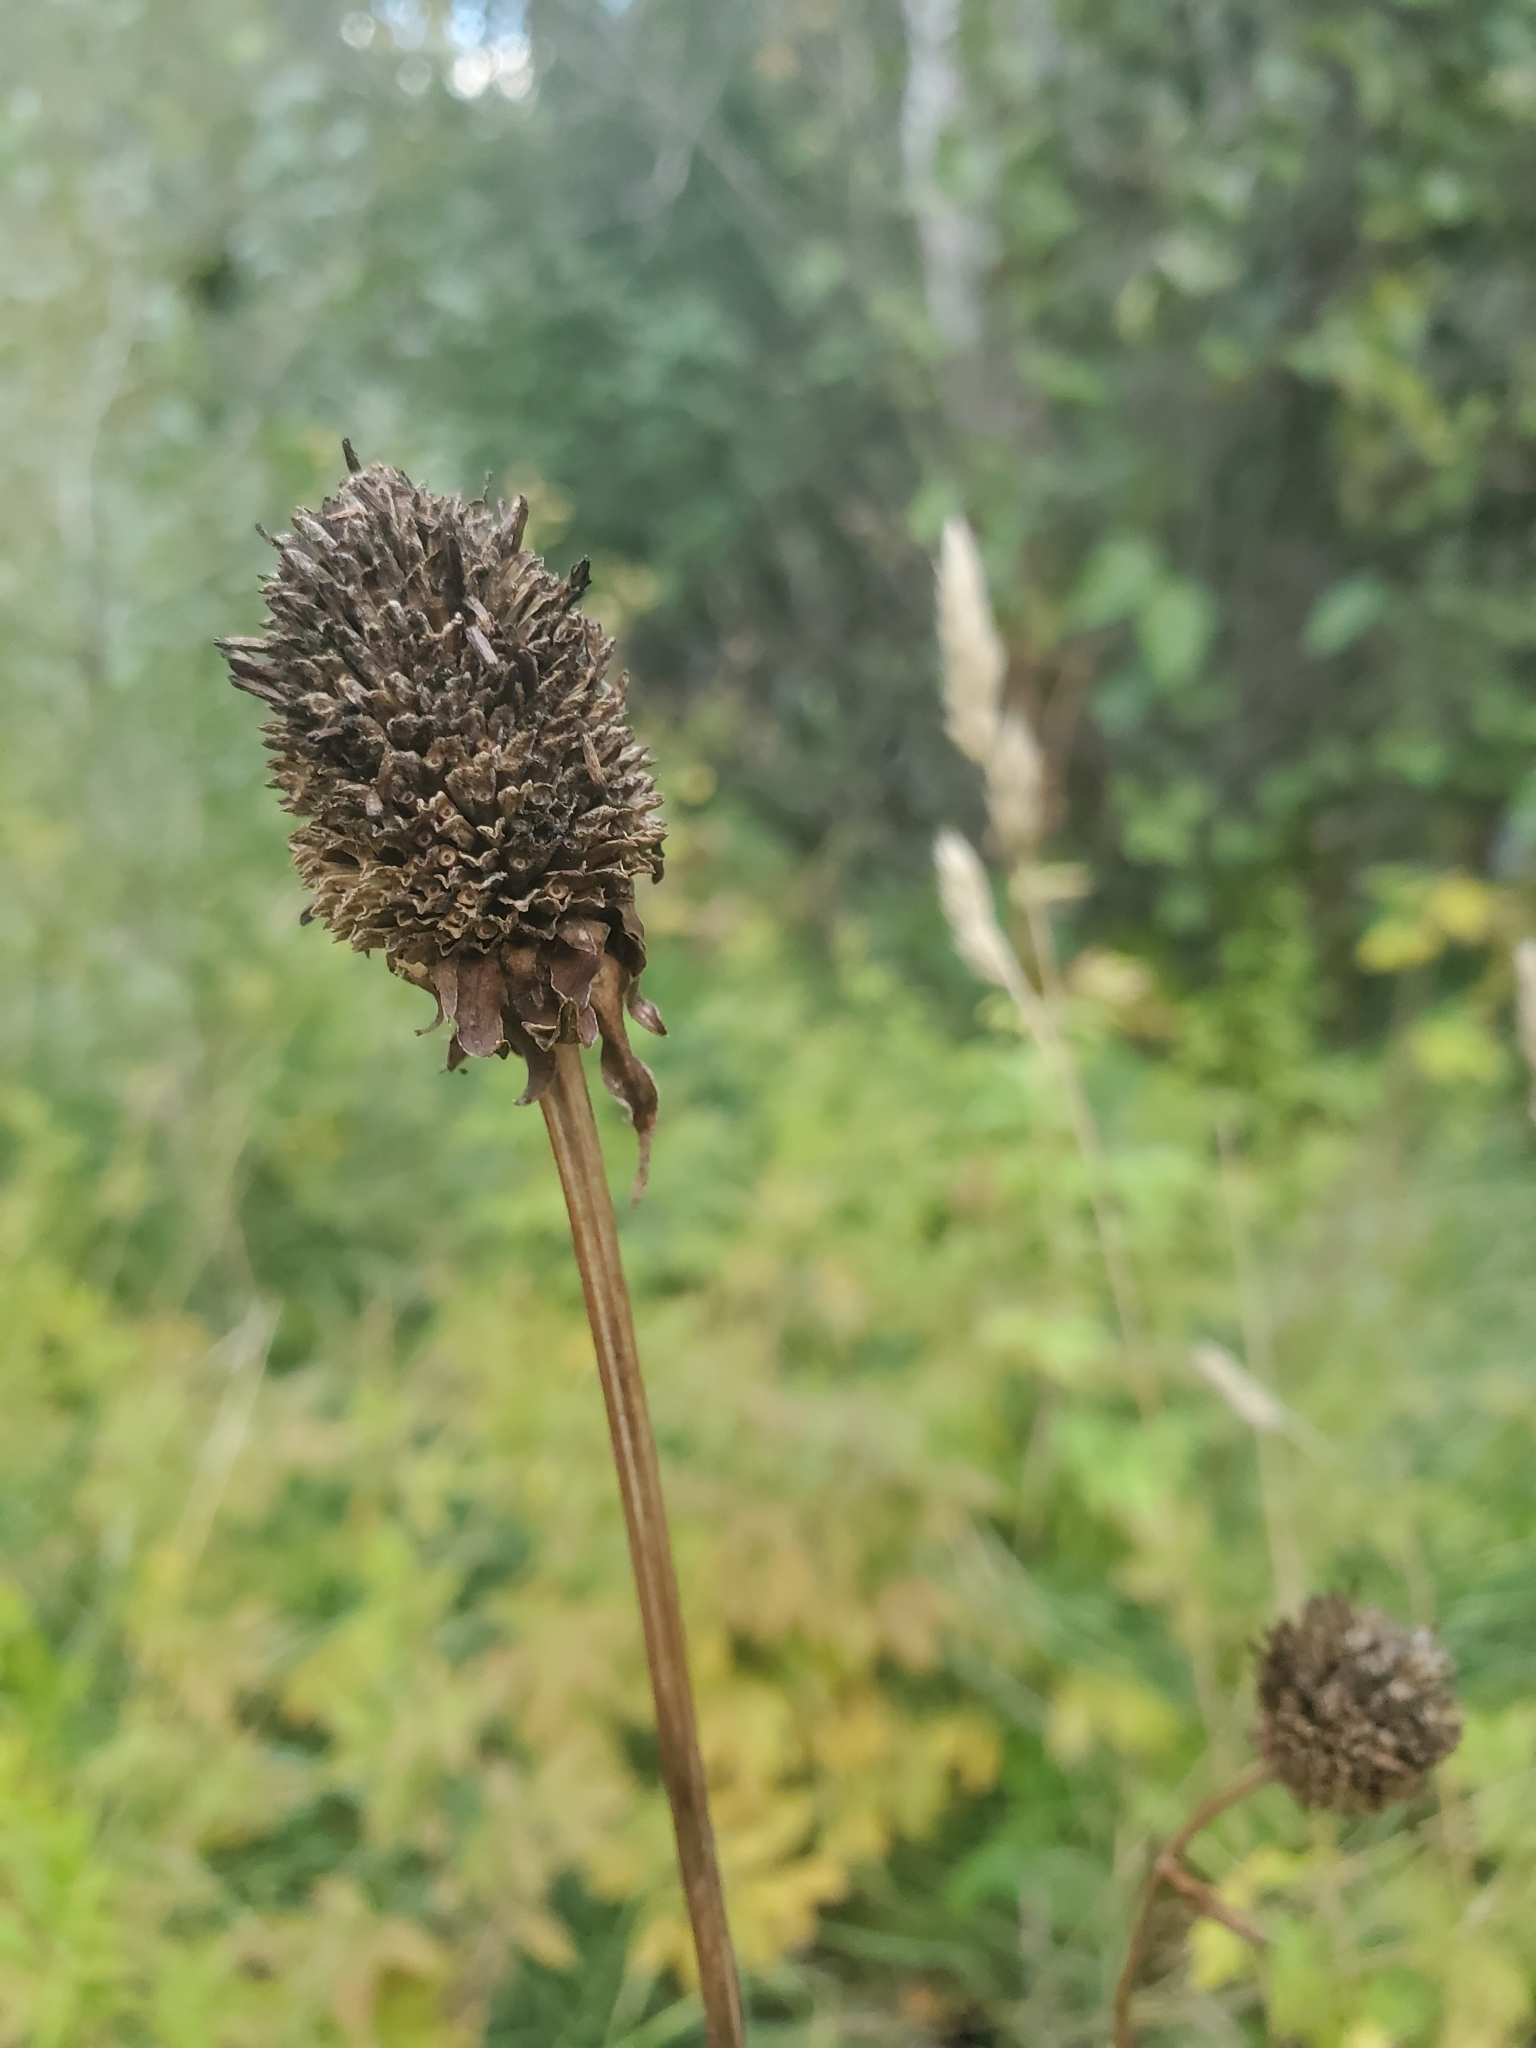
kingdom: Plantae
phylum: Tracheophyta
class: Magnoliopsida
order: Asterales
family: Asteraceae
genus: Rudbeckia
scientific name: Rudbeckia laciniata
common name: Coneflower
